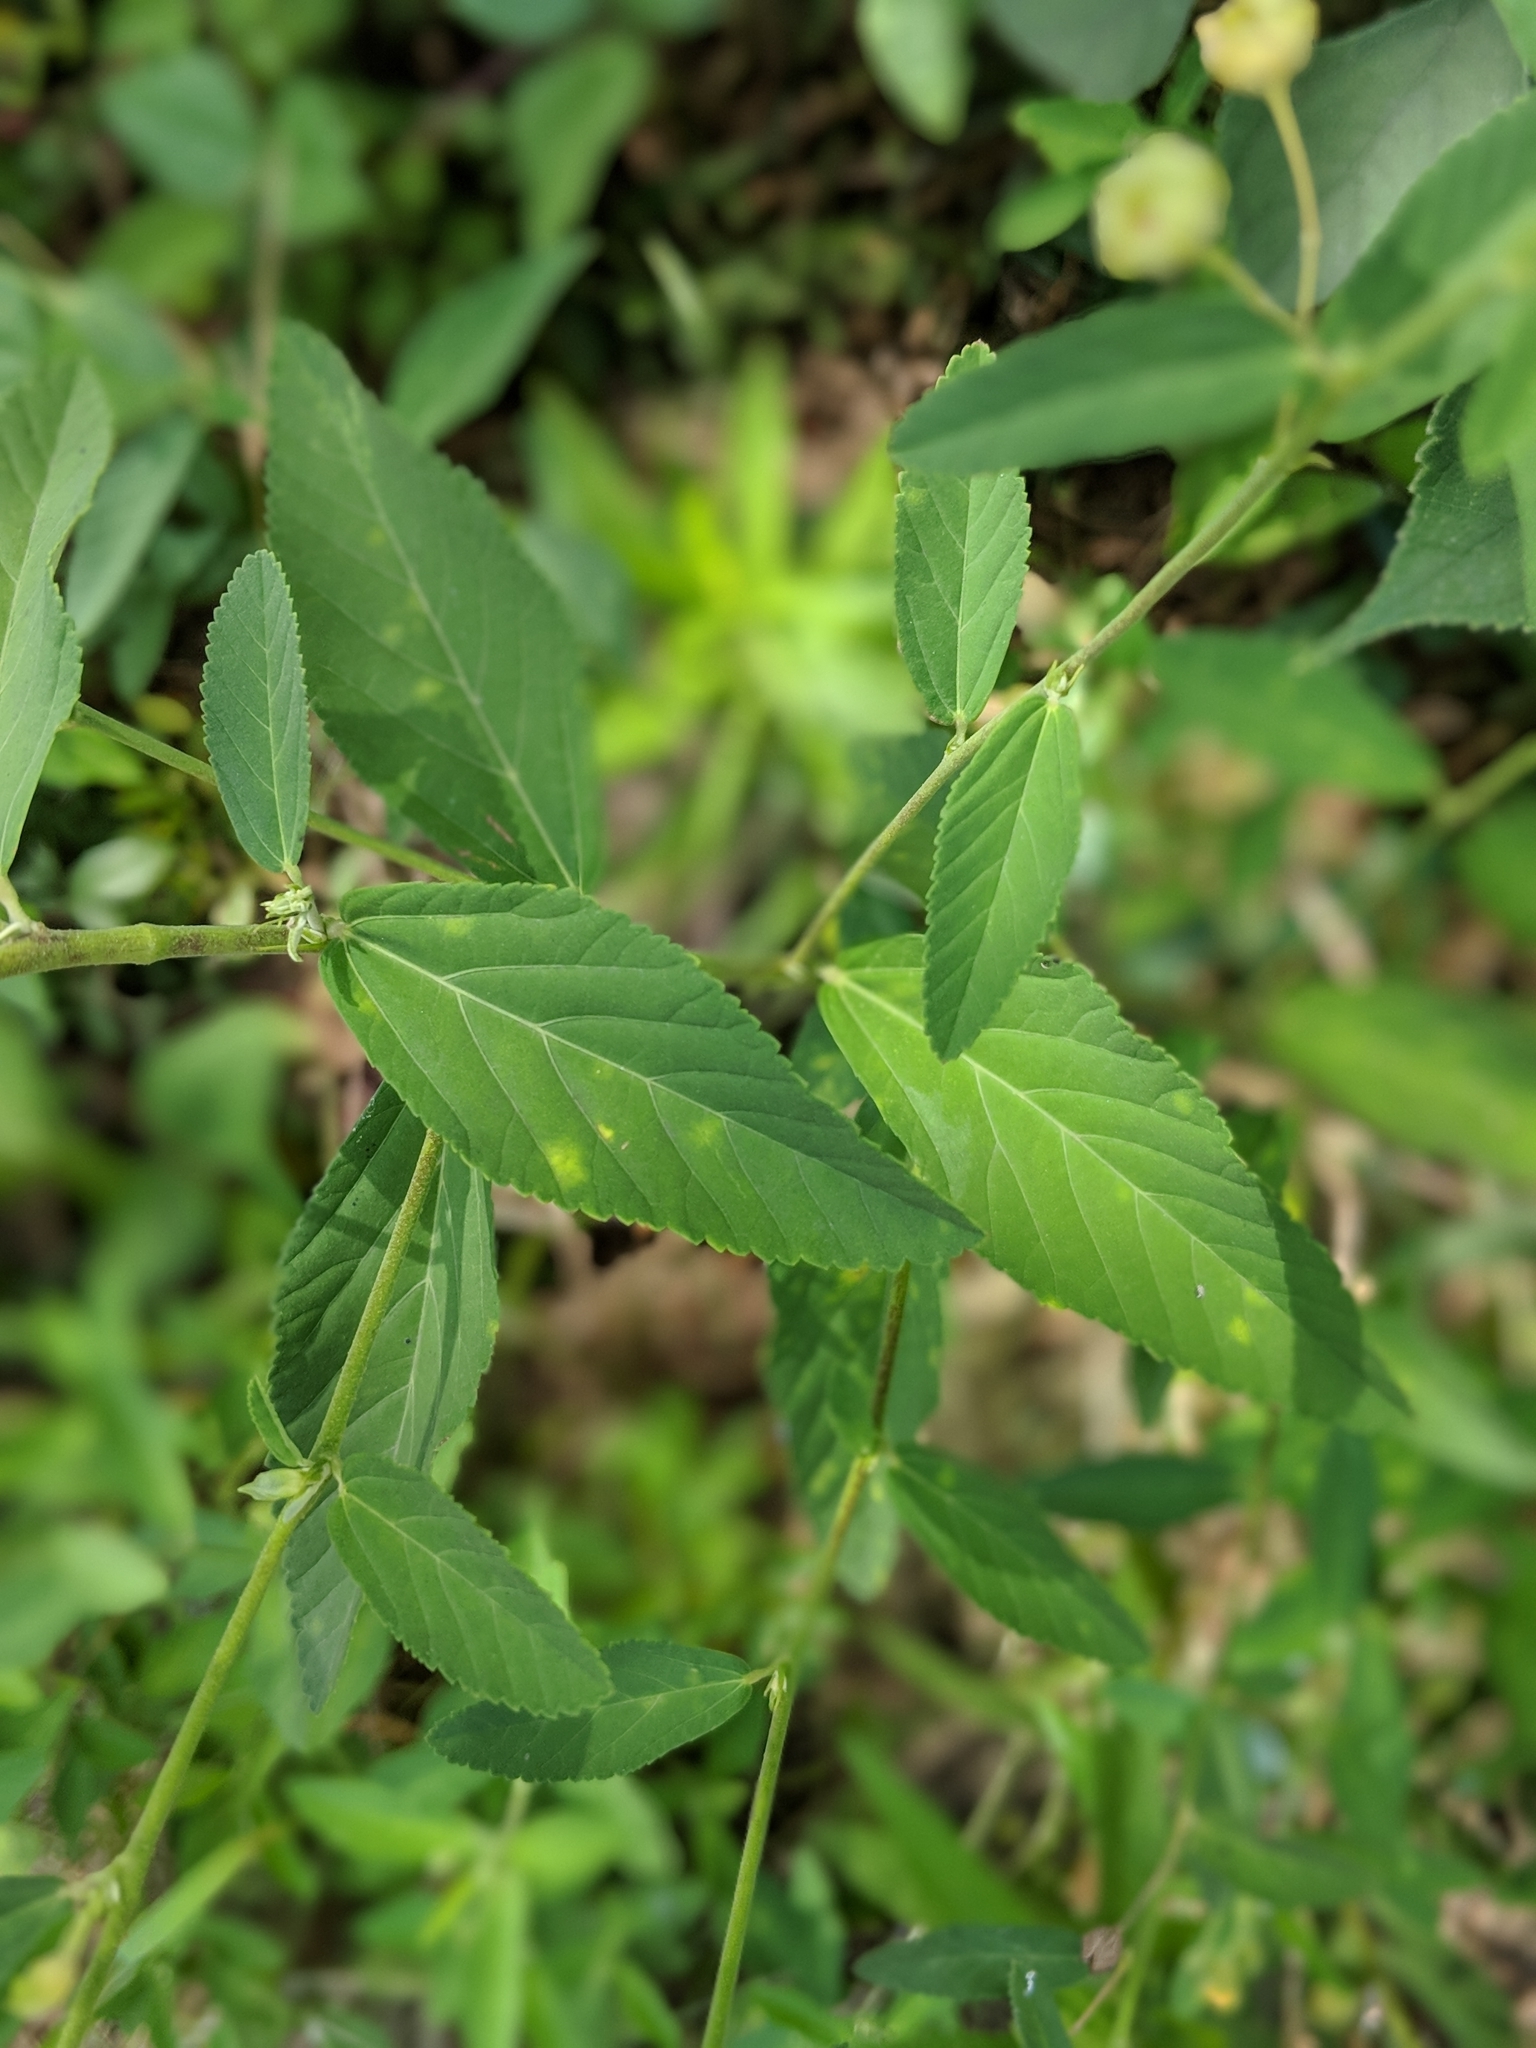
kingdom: Plantae
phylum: Tracheophyta
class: Magnoliopsida
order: Malvales
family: Malvaceae
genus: Sida
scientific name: Sida rhombifolia
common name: Queensland-hemp
